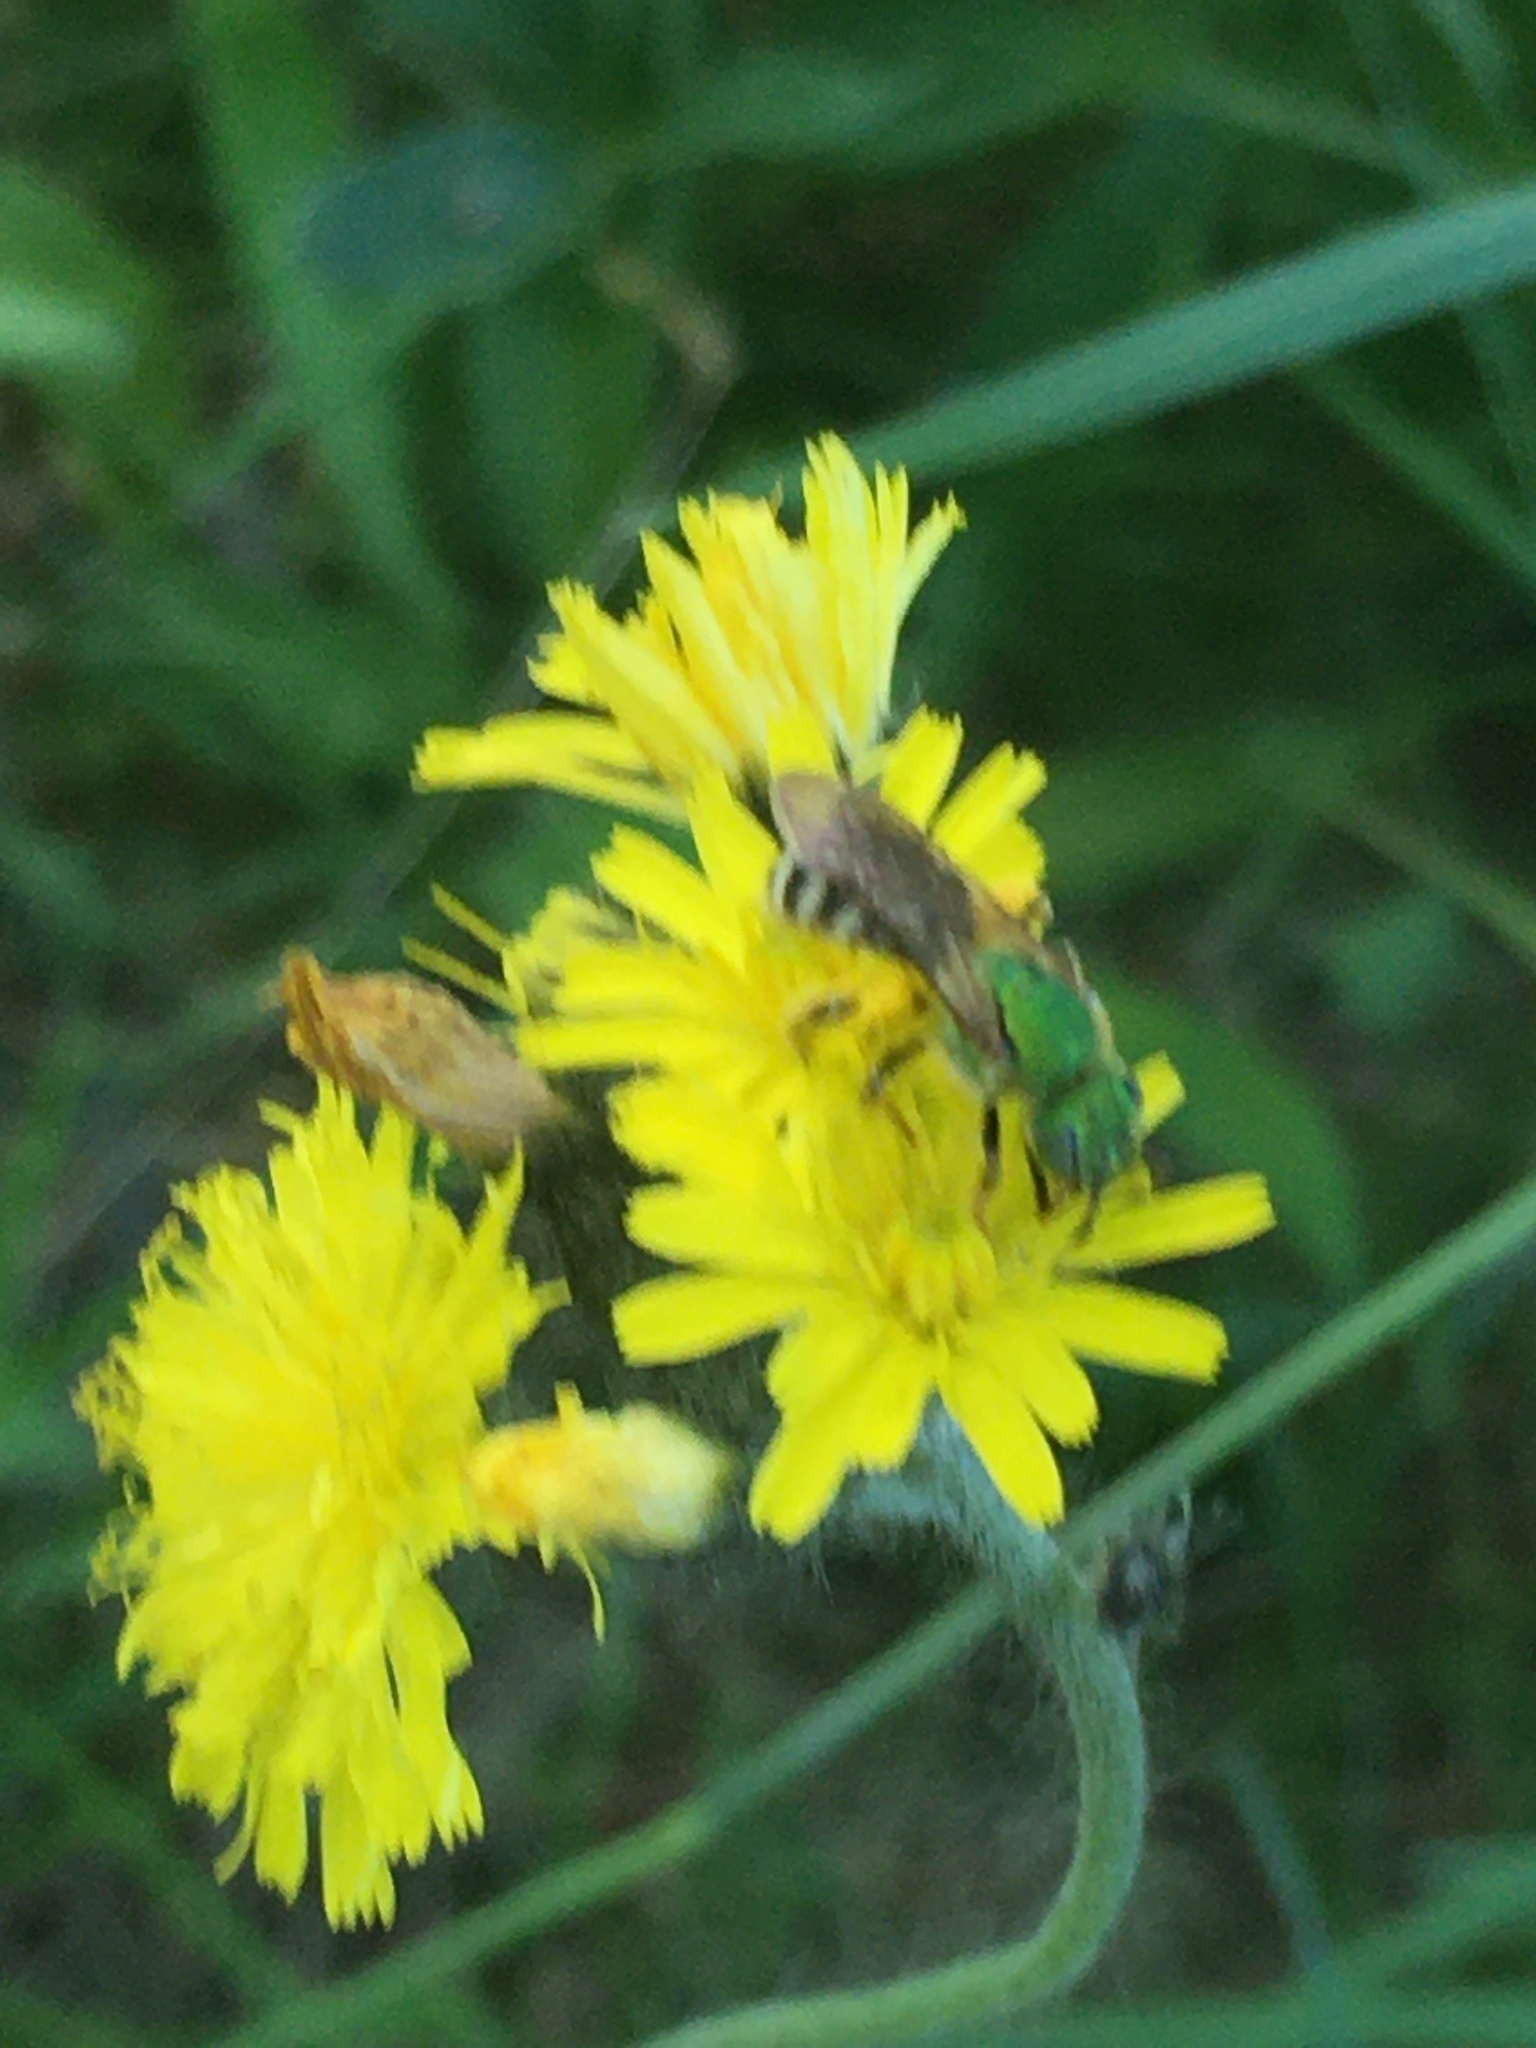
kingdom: Animalia
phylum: Arthropoda
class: Insecta
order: Hymenoptera
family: Halictidae
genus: Agapostemon
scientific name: Agapostemon virescens
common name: Bicolored striped sweat bee
